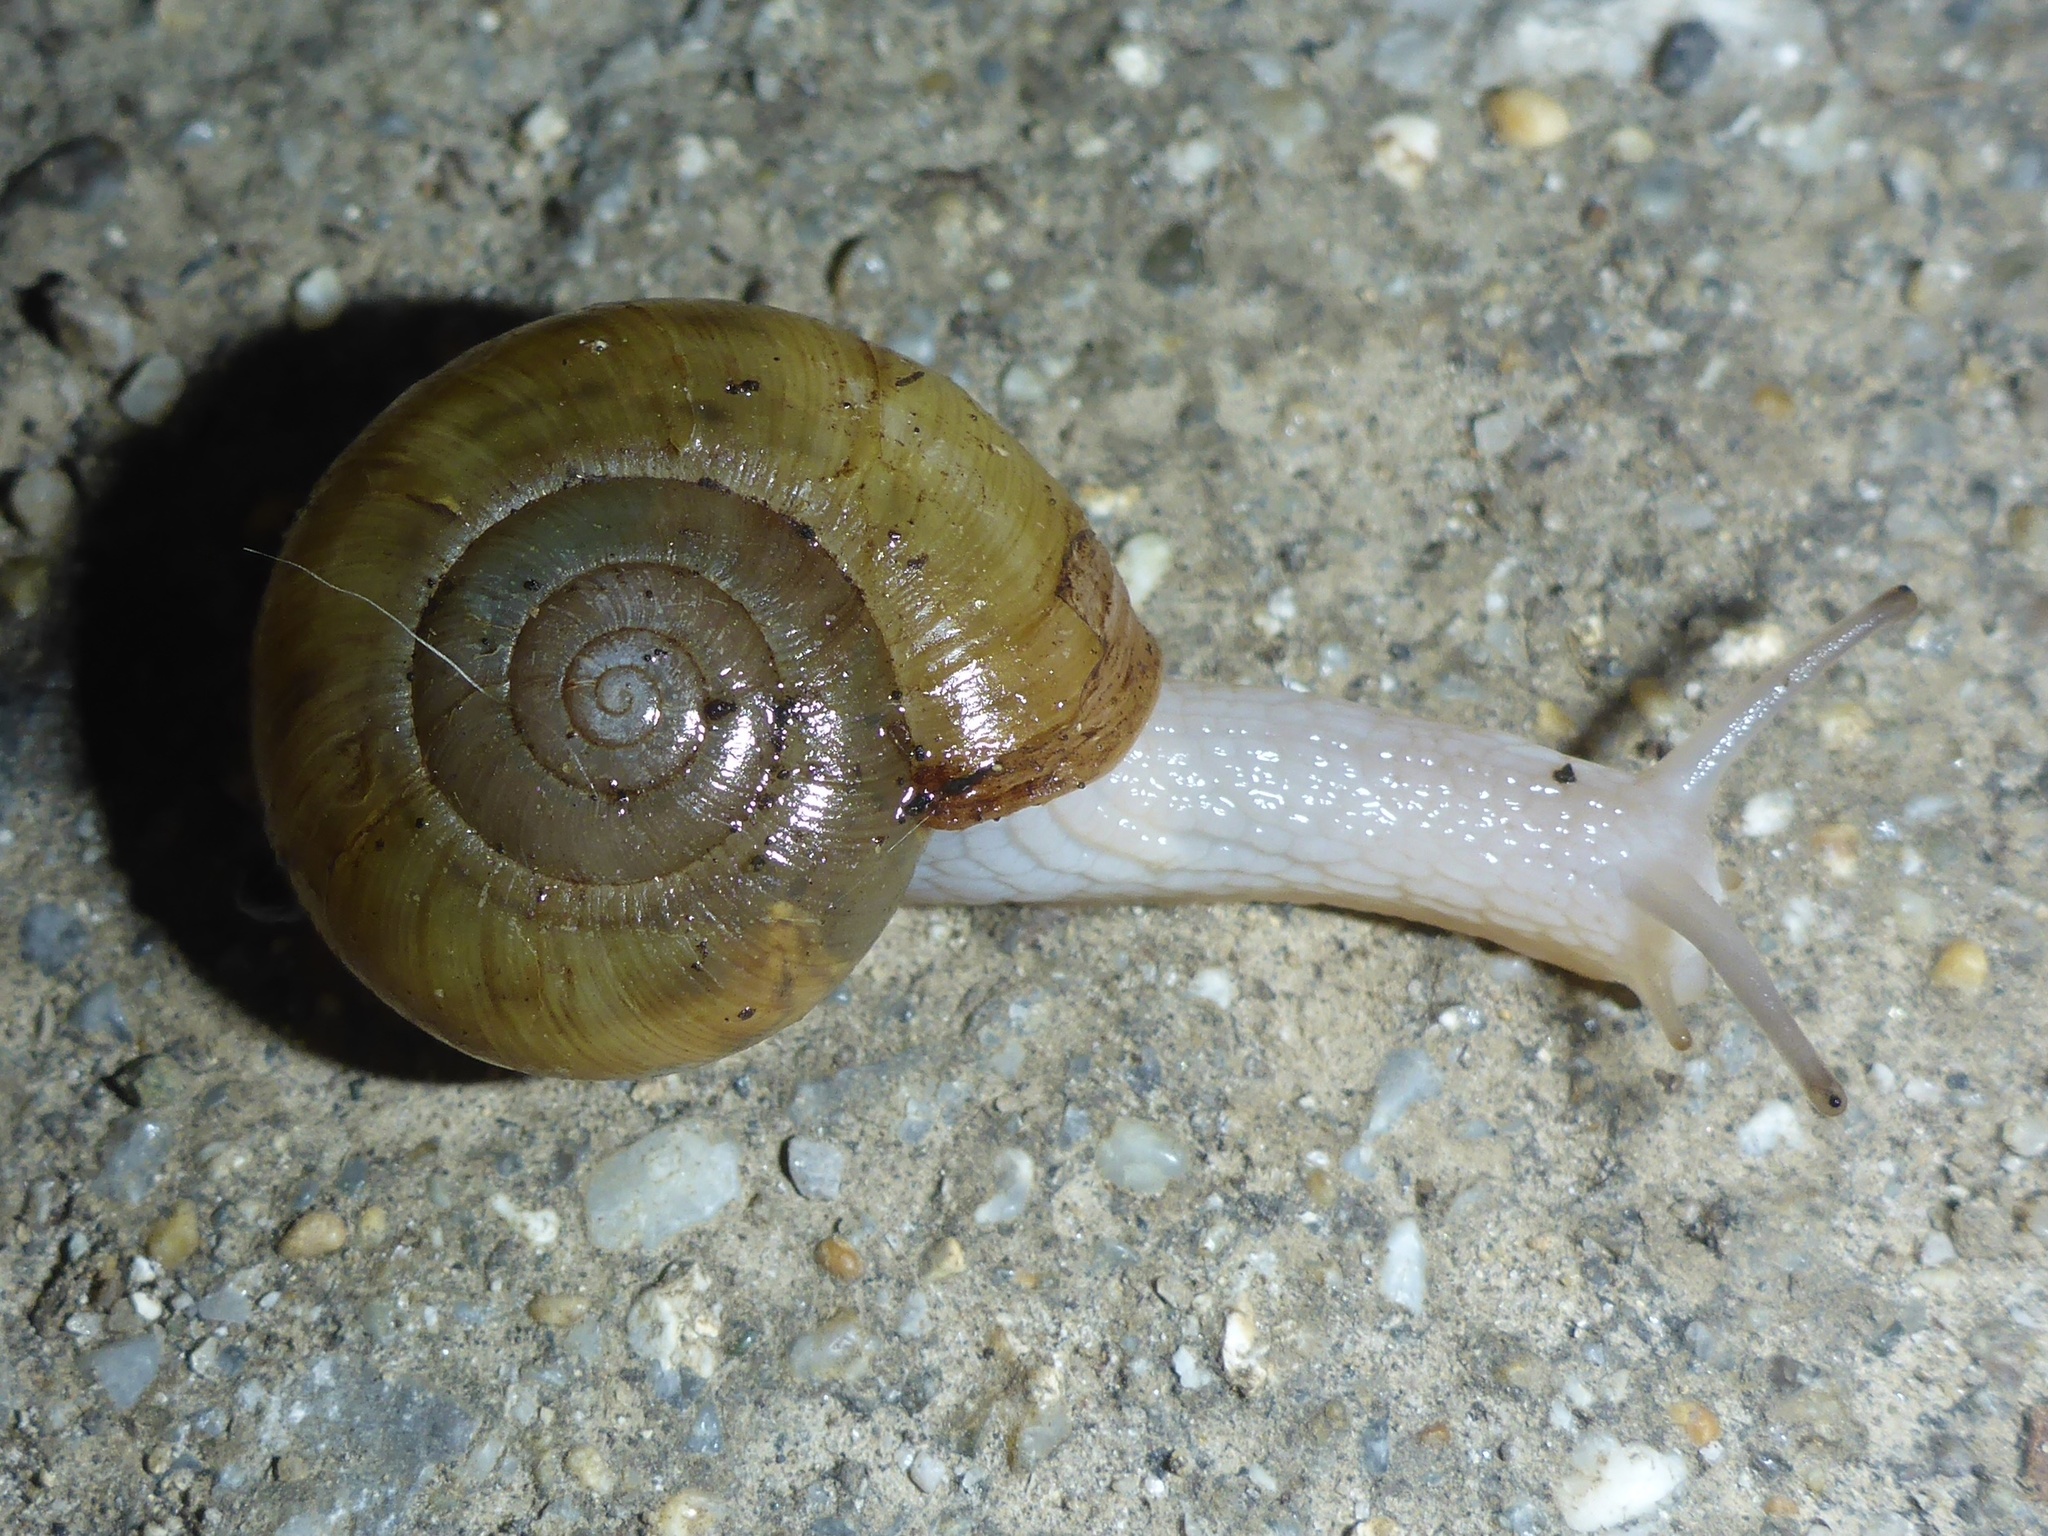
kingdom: Animalia
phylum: Mollusca
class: Gastropoda
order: Stylommatophora
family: Haplotrematidae
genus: Haplotrema
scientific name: Haplotrema minimum
